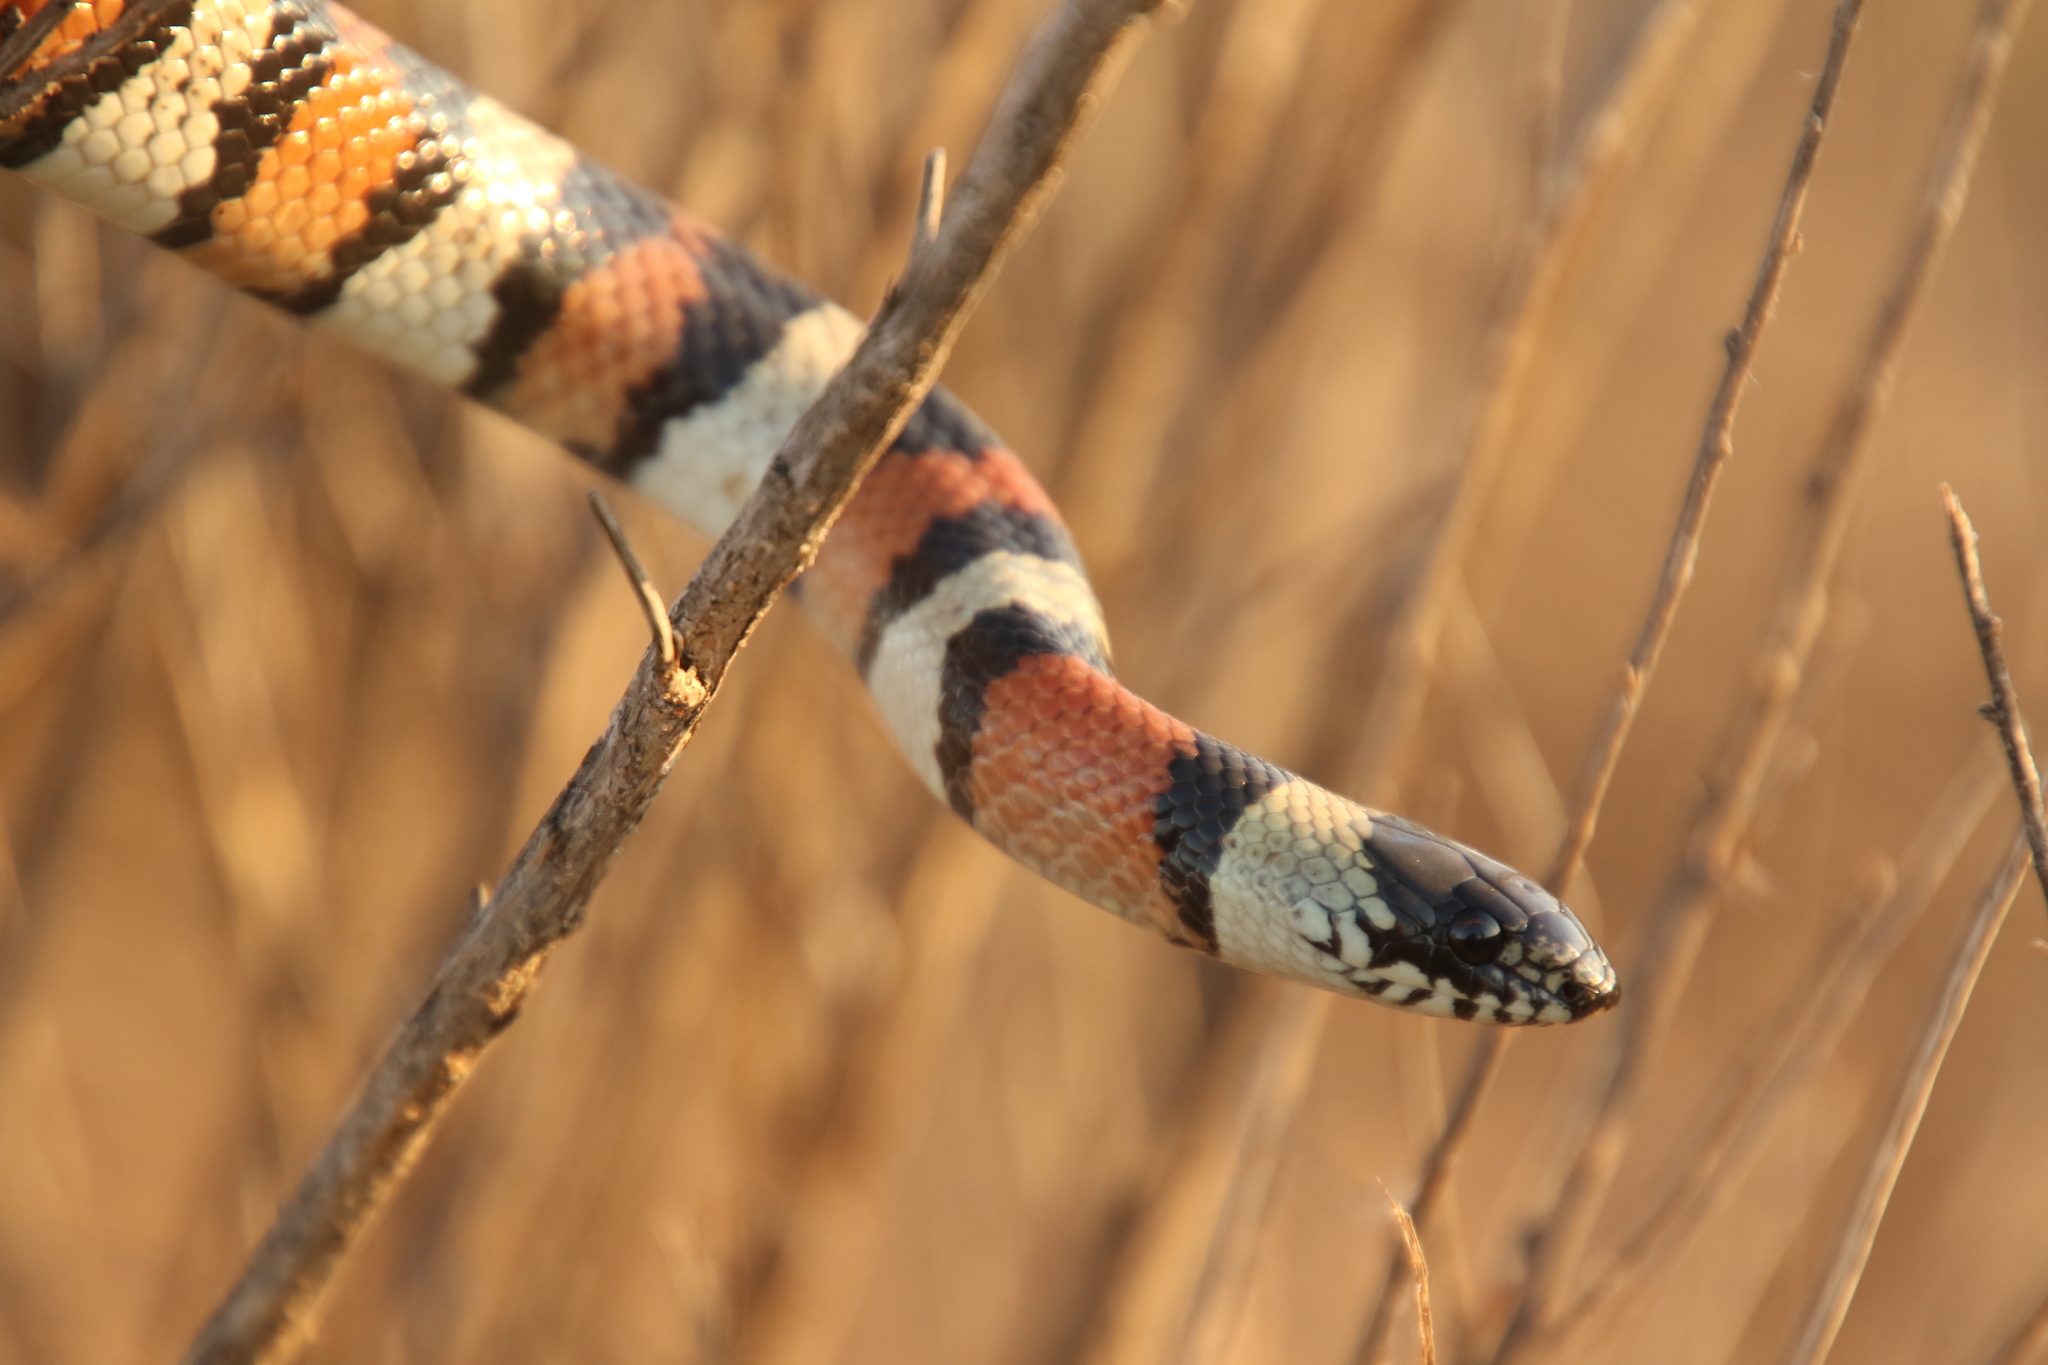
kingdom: Animalia
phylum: Chordata
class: Squamata
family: Colubridae
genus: Lampropeltis
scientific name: Lampropeltis gentilis
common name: Central plains milksnake
